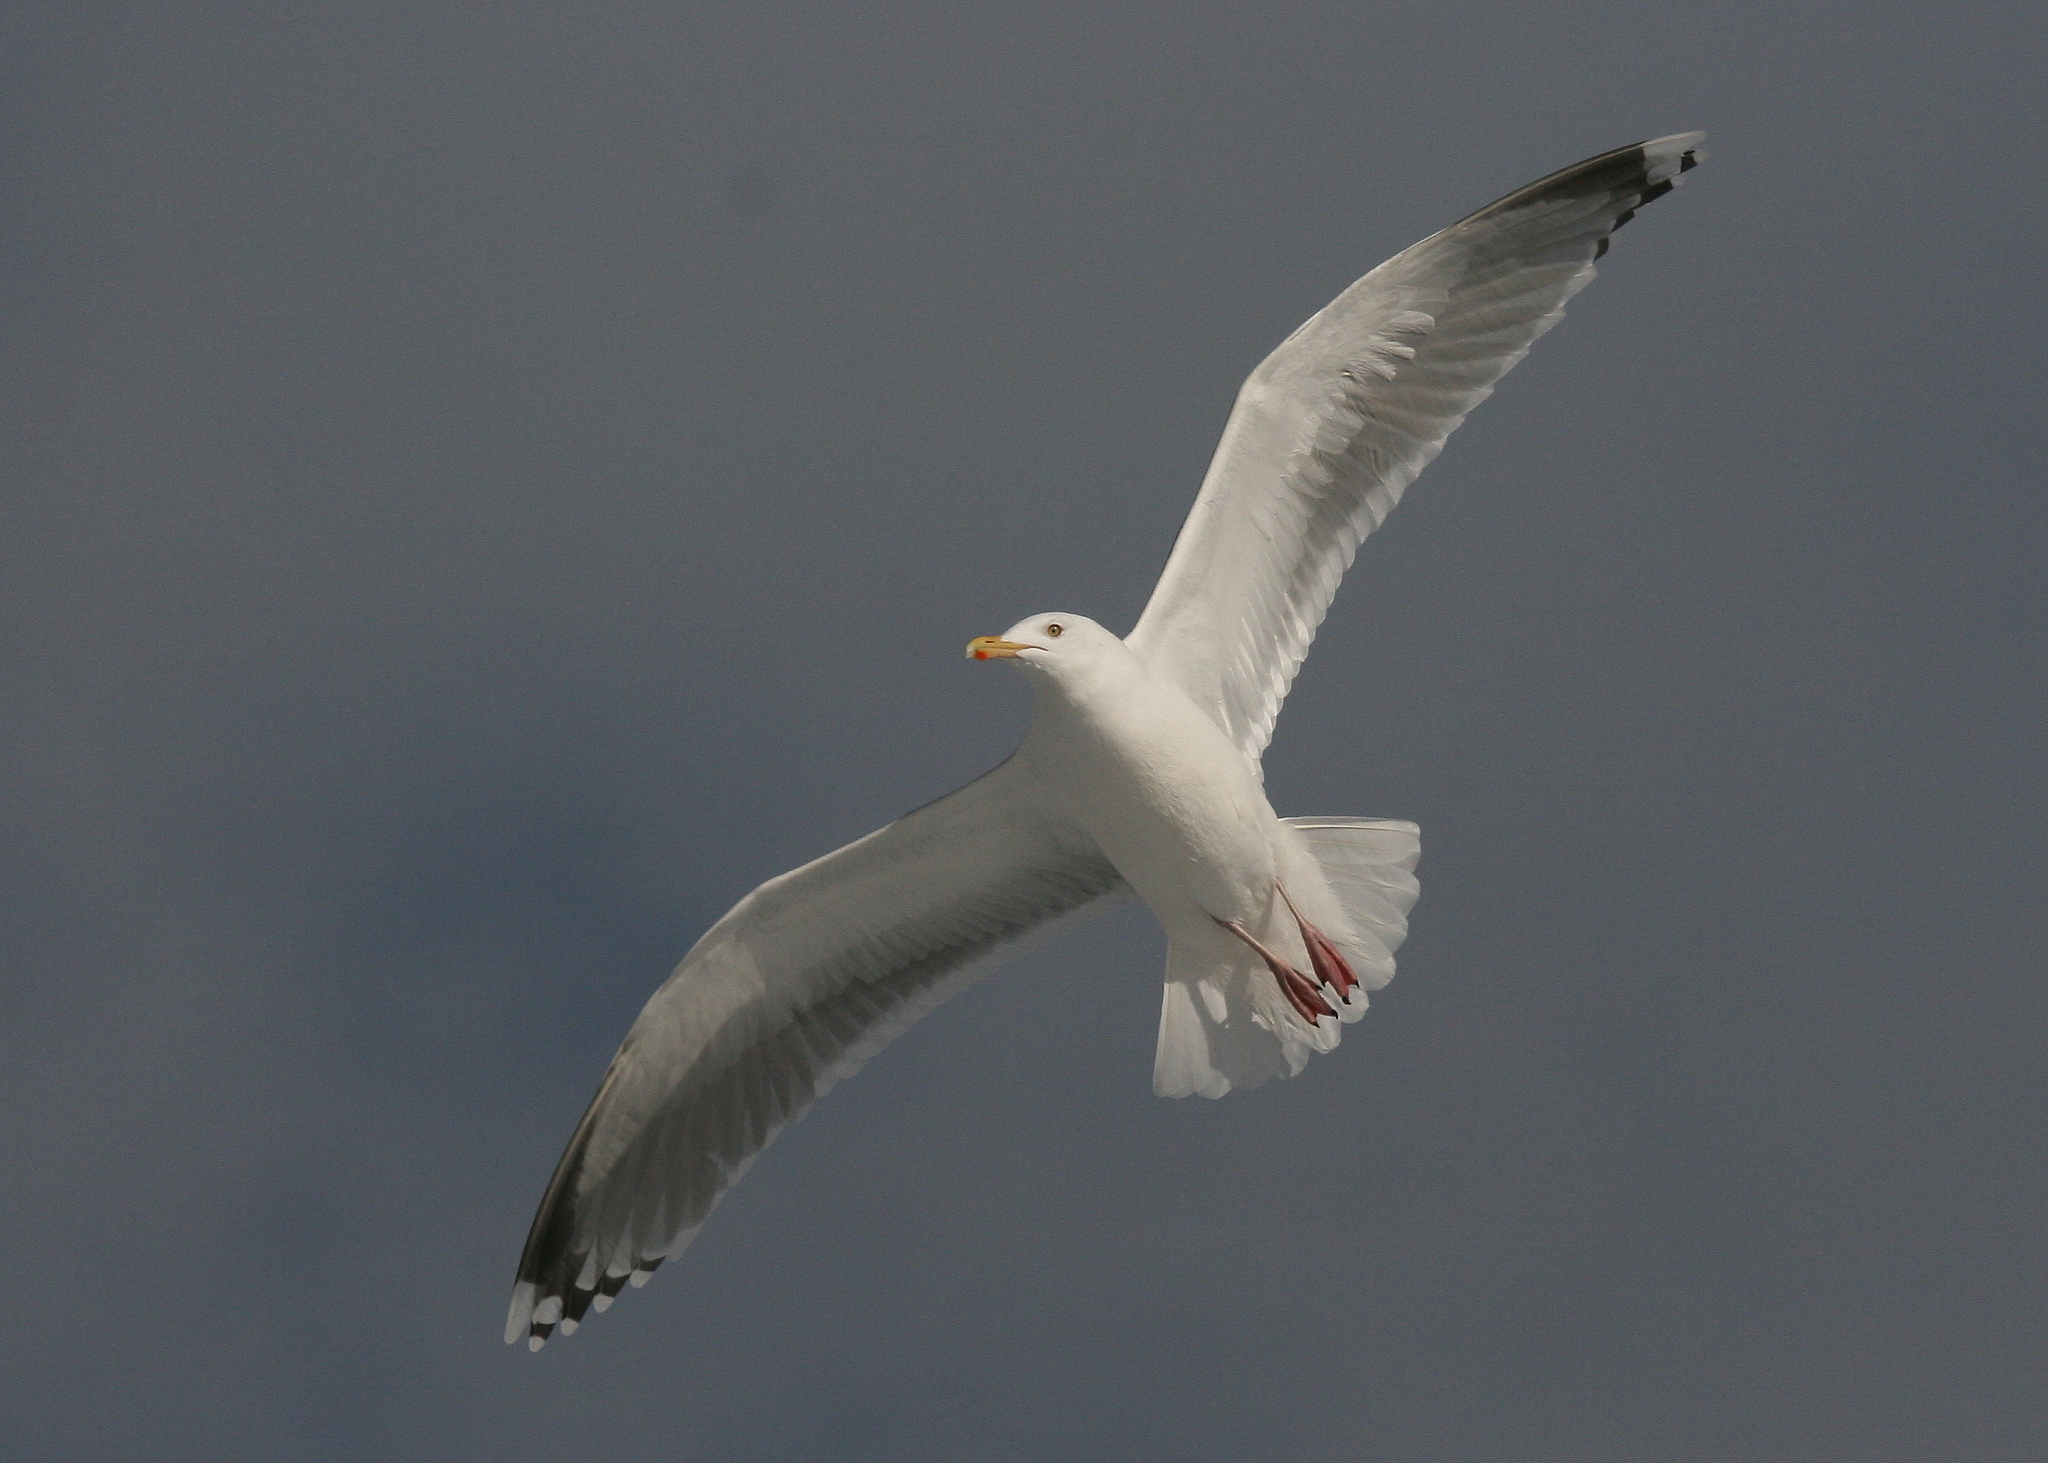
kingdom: Animalia
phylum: Chordata
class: Aves
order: Charadriiformes
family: Laridae
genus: Larus
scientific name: Larus argentatus
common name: Herring gull
